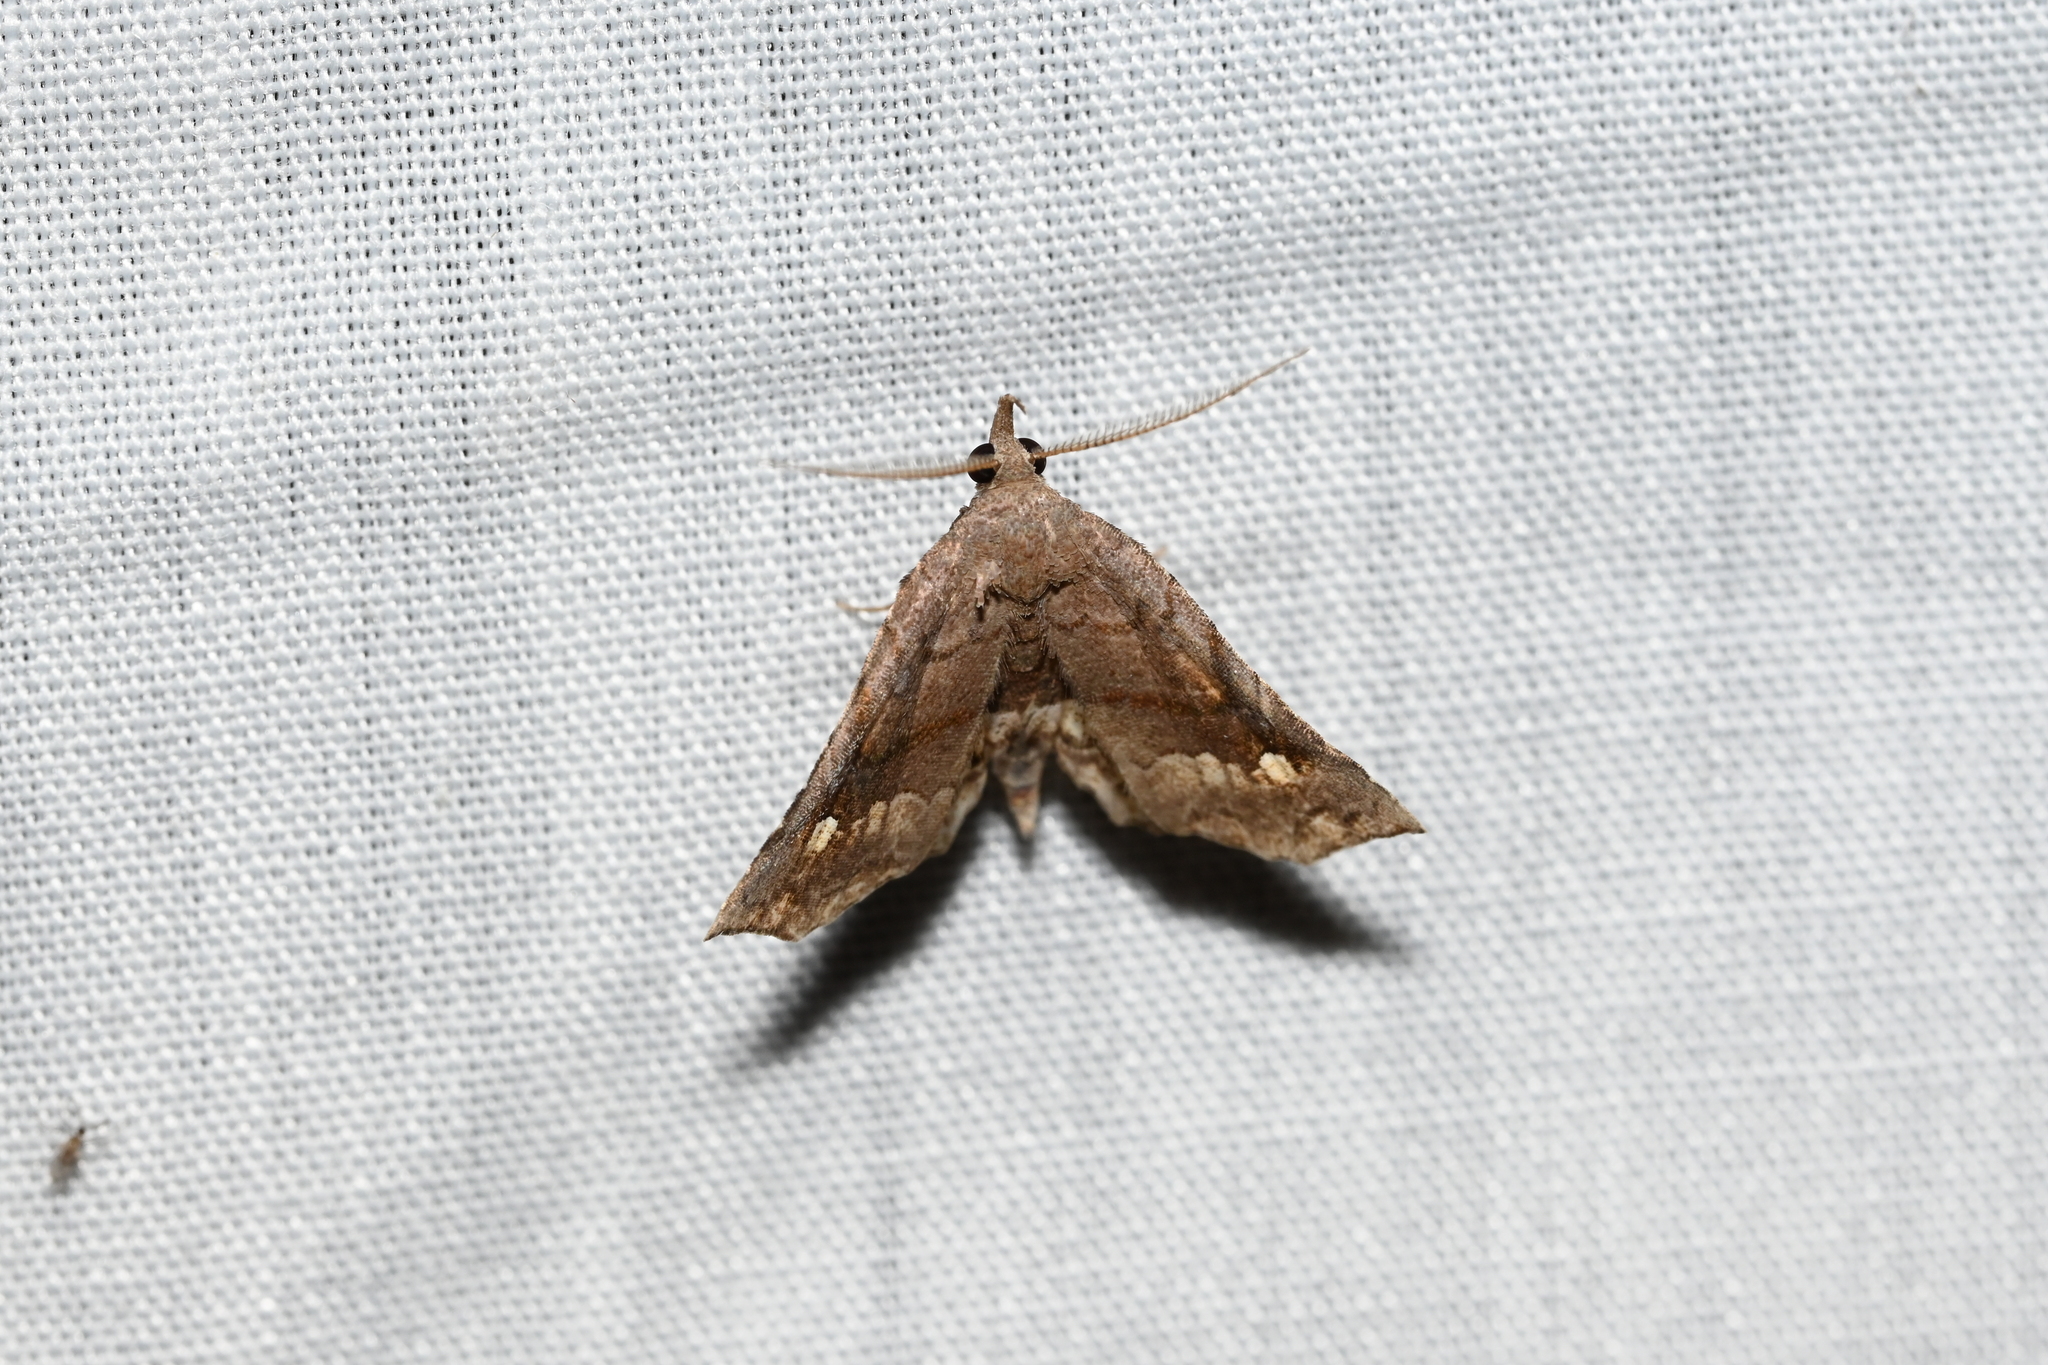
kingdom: Animalia
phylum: Arthropoda
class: Insecta
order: Lepidoptera
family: Erebidae
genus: Throana
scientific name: Throana pectinifer
